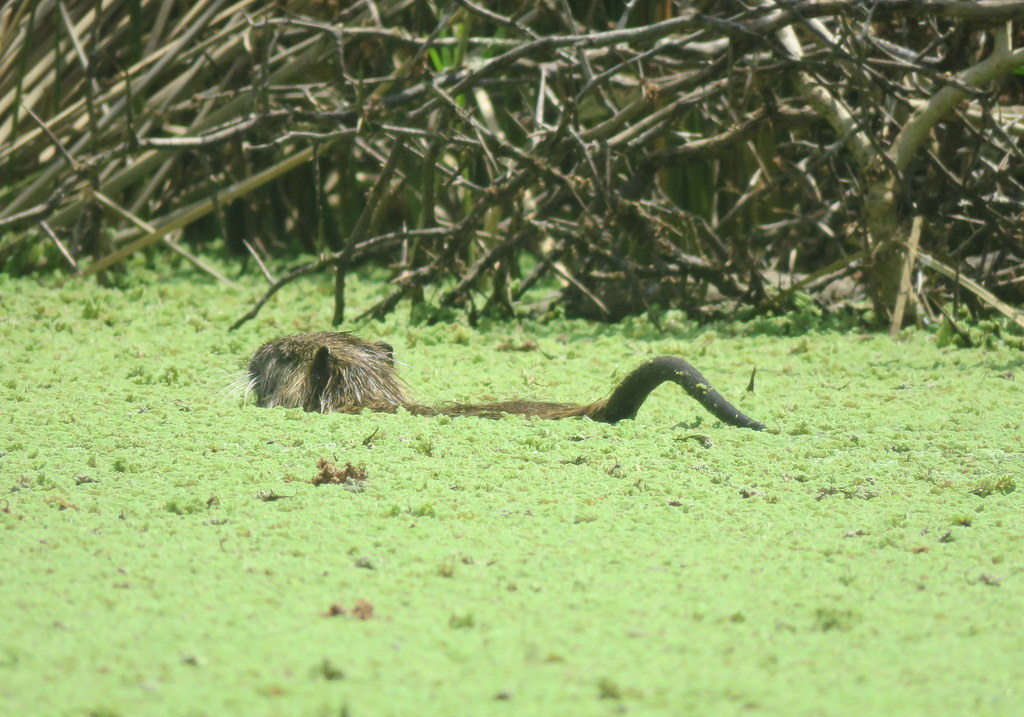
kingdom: Animalia
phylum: Chordata
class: Mammalia
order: Rodentia
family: Myocastoridae
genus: Myocastor
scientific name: Myocastor coypus
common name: Coypu
